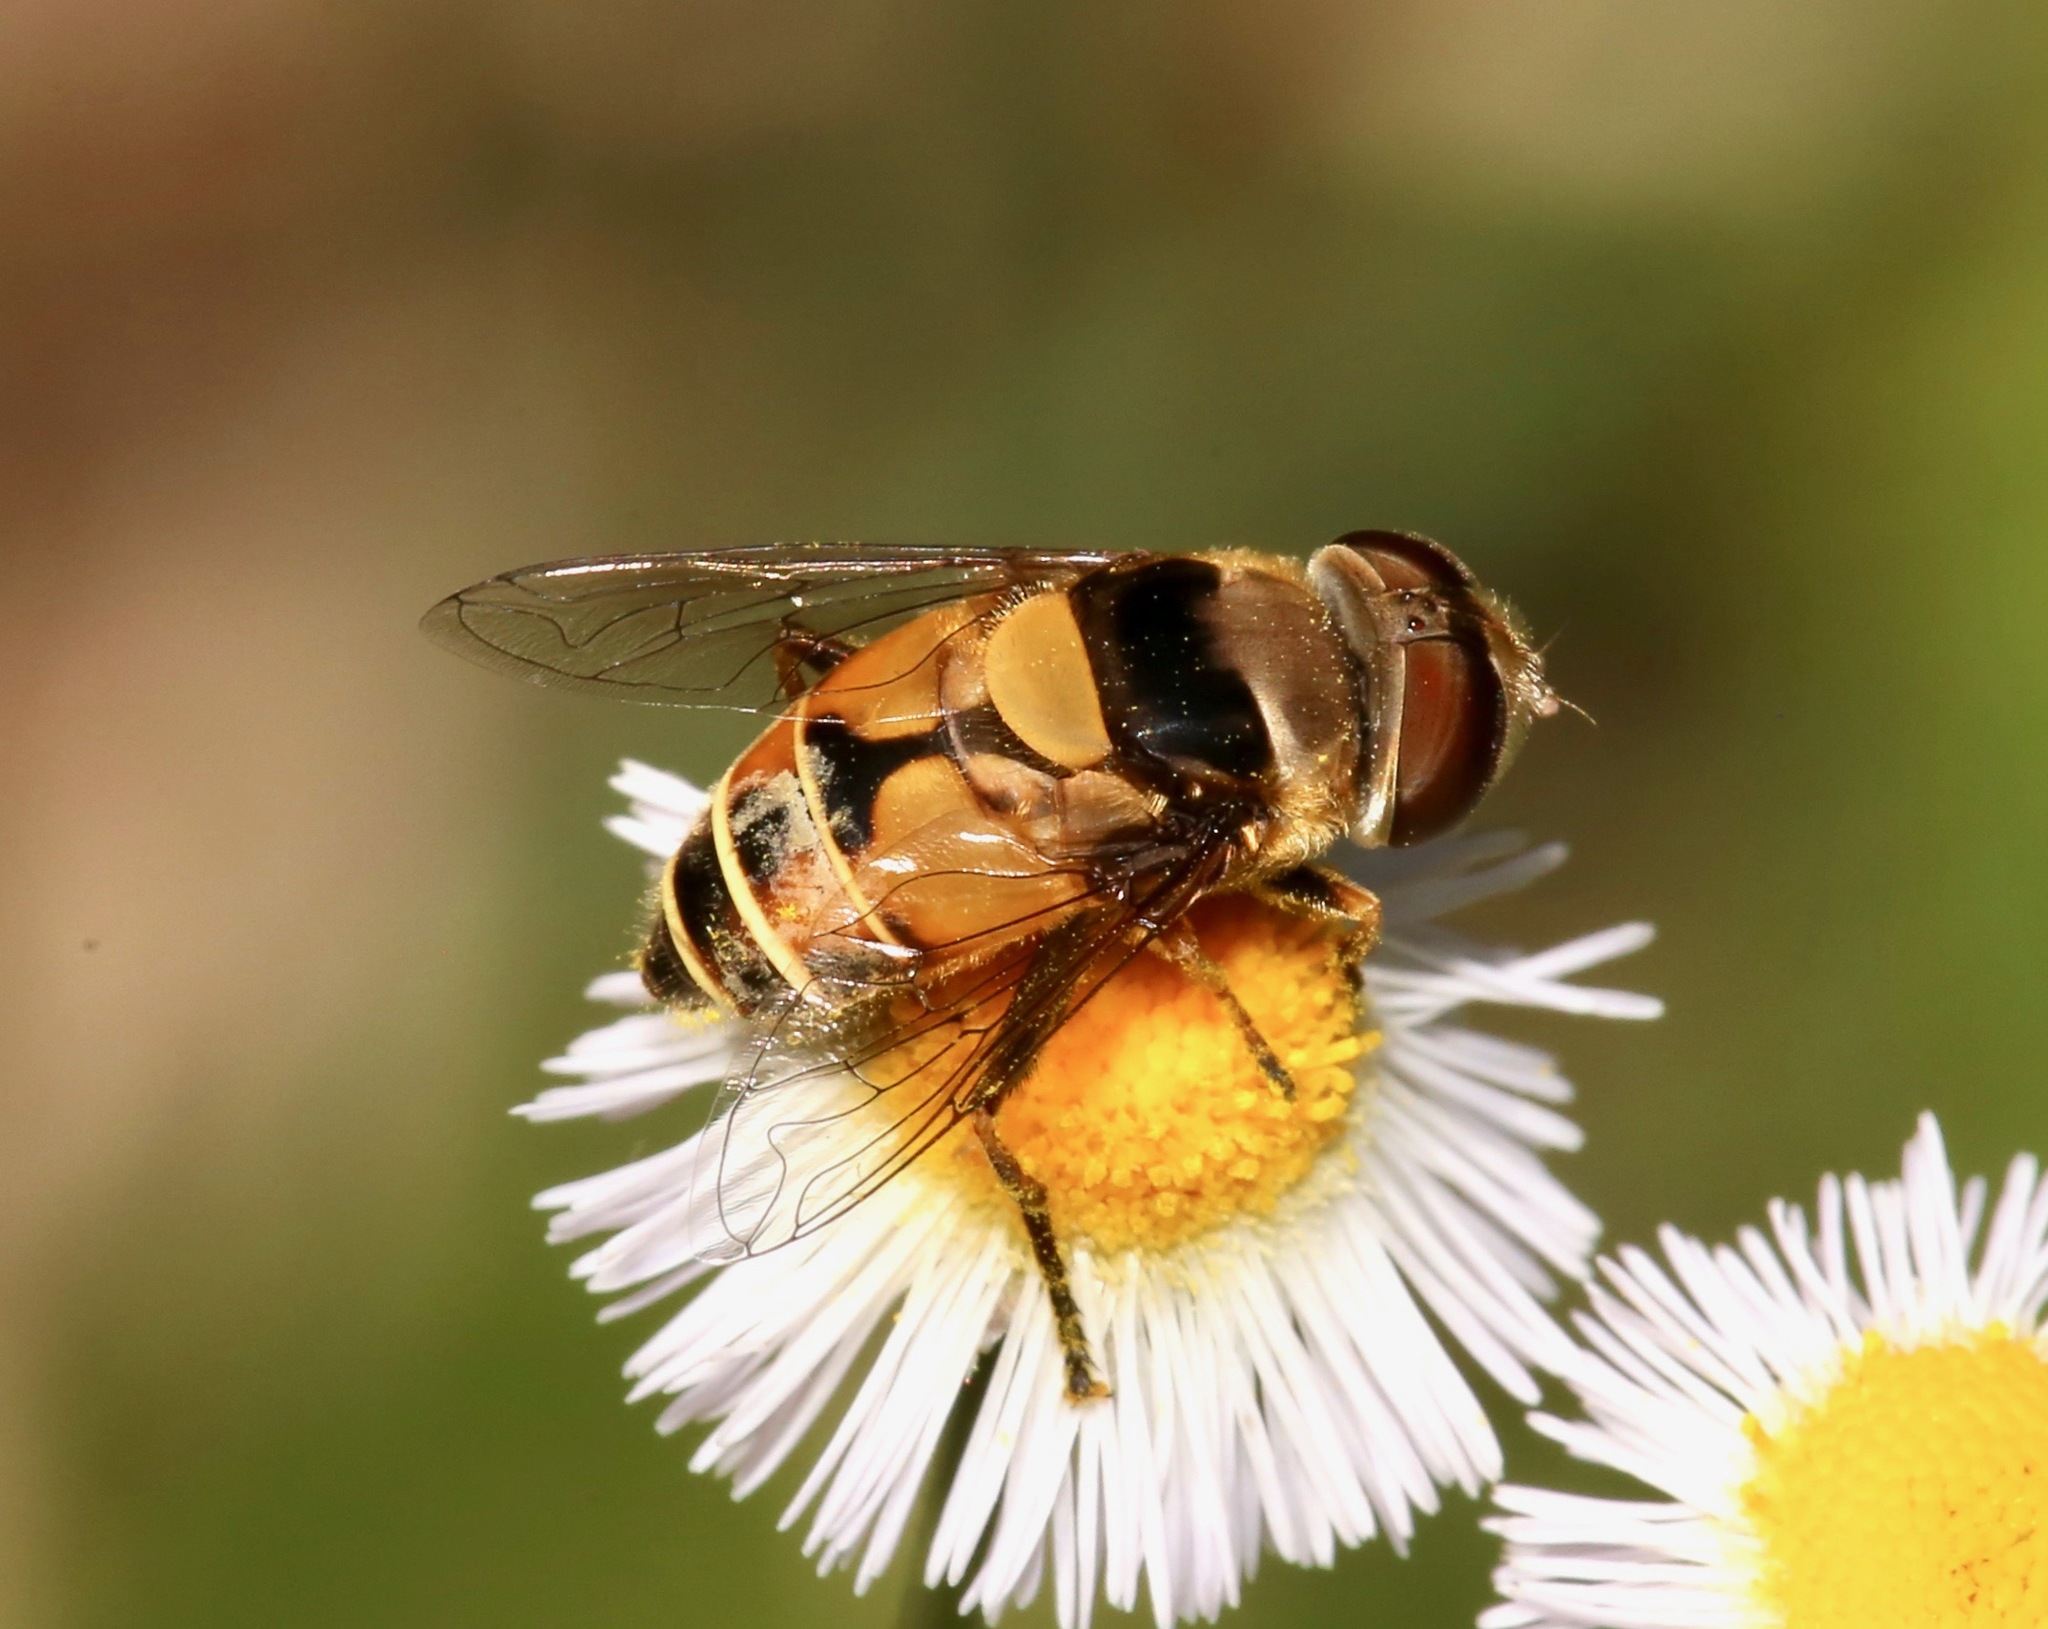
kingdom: Animalia
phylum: Arthropoda
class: Insecta
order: Diptera
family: Syrphidae
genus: Palpada
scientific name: Palpada pusilla
